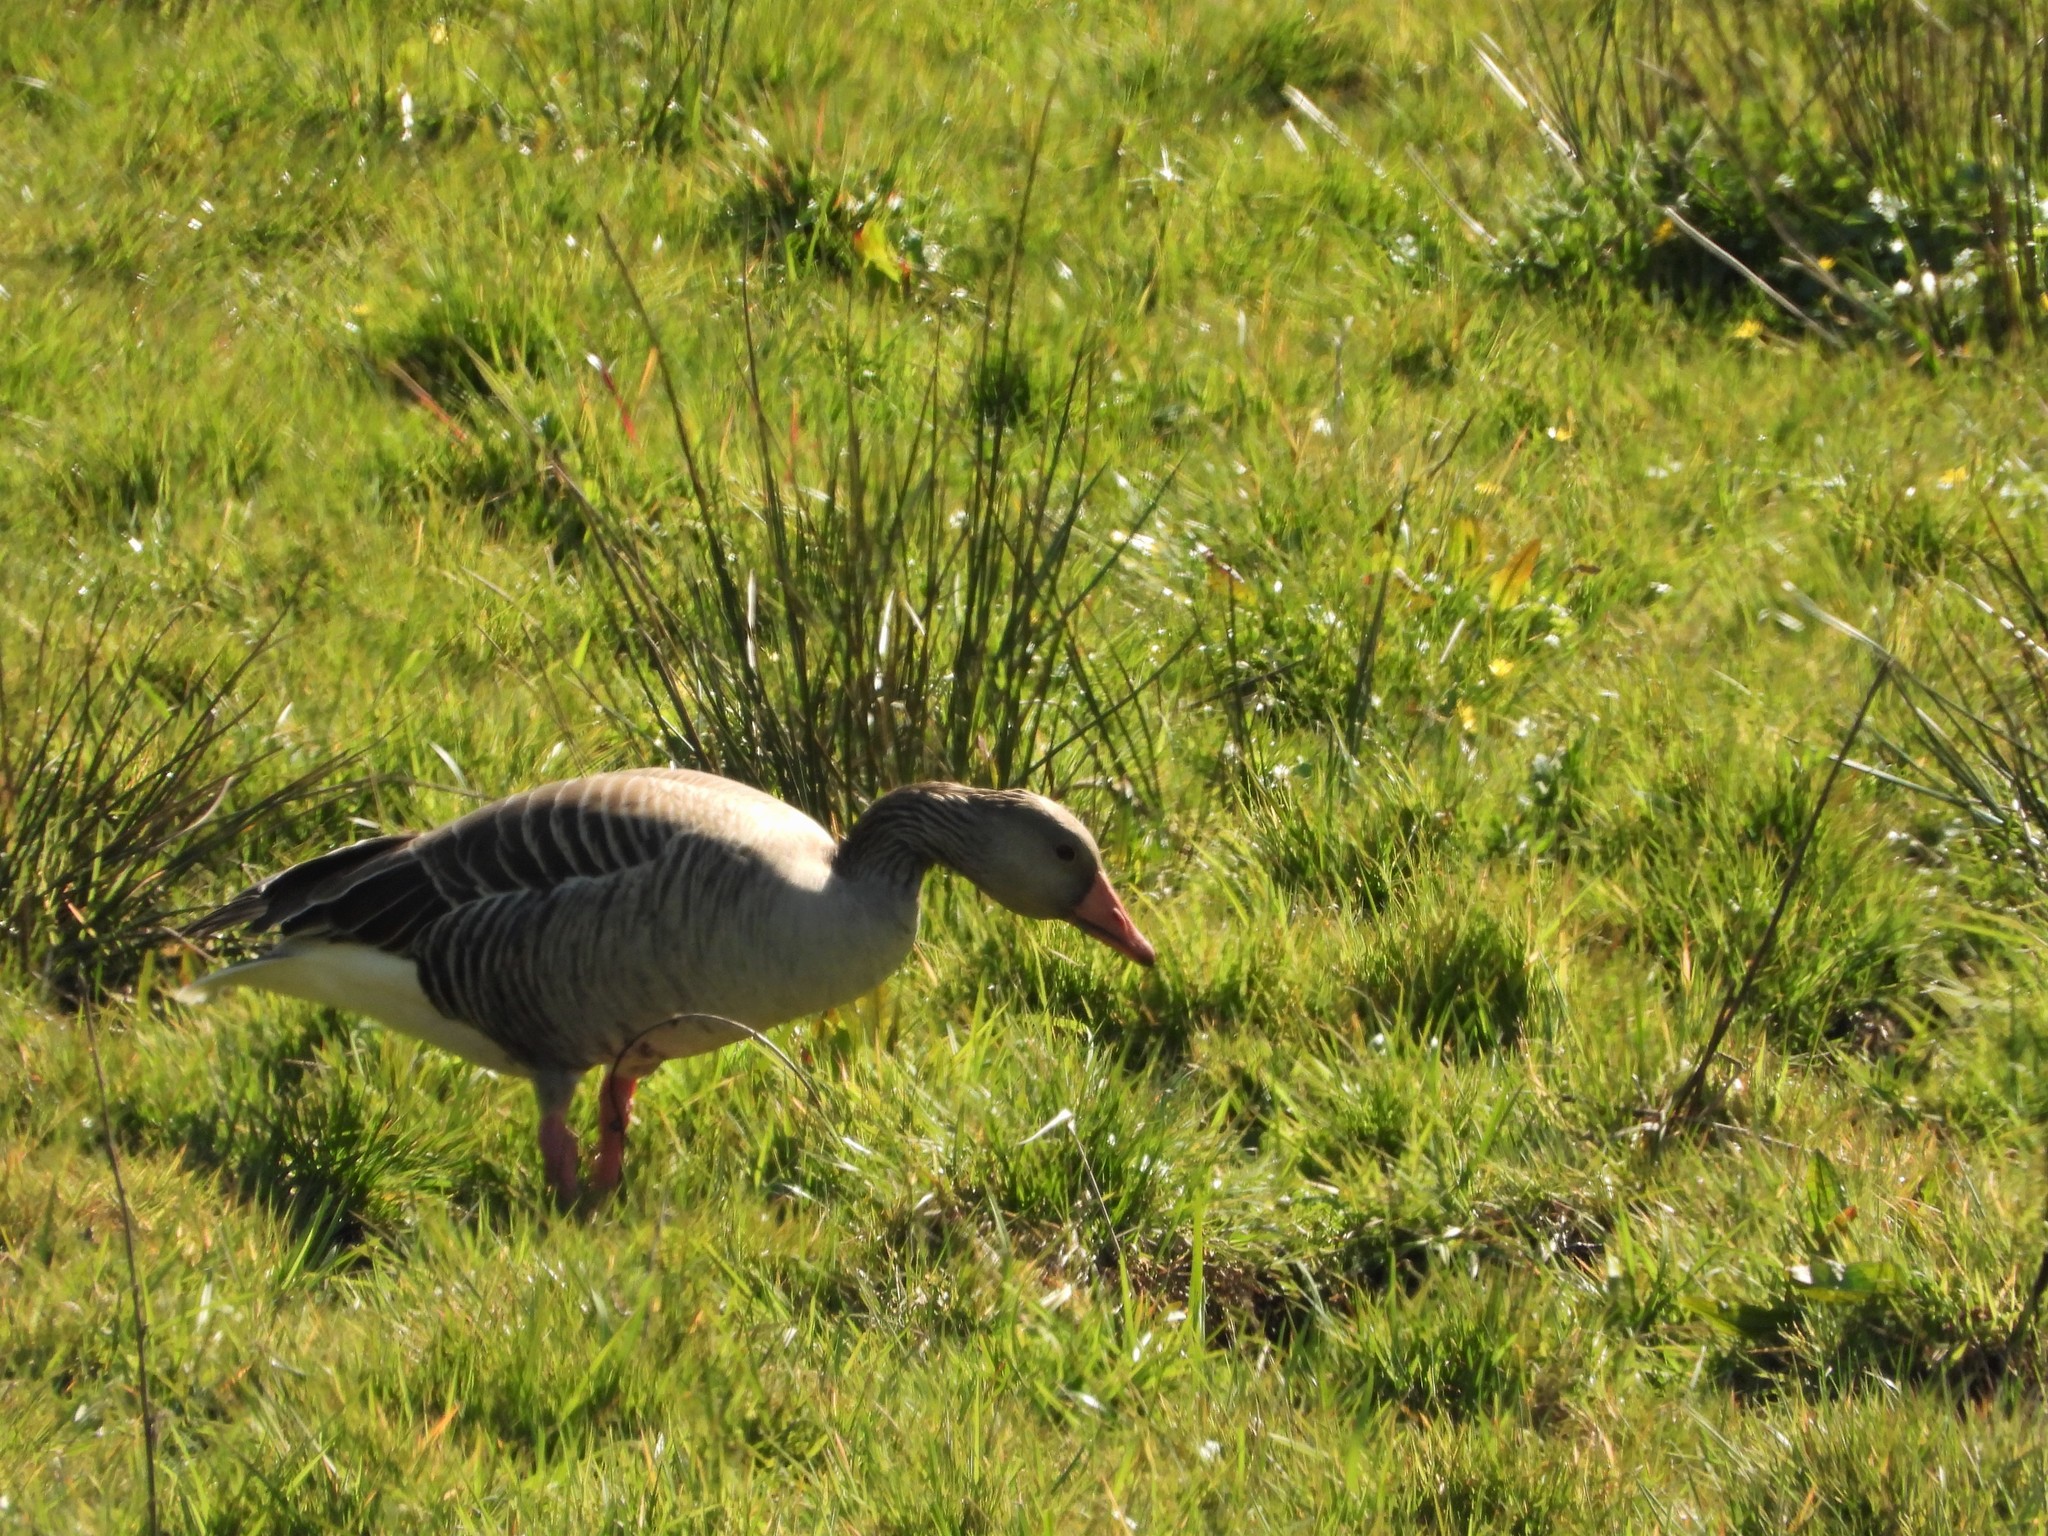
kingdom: Animalia
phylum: Chordata
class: Aves
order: Anseriformes
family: Anatidae
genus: Anser
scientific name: Anser anser
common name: Greylag goose
